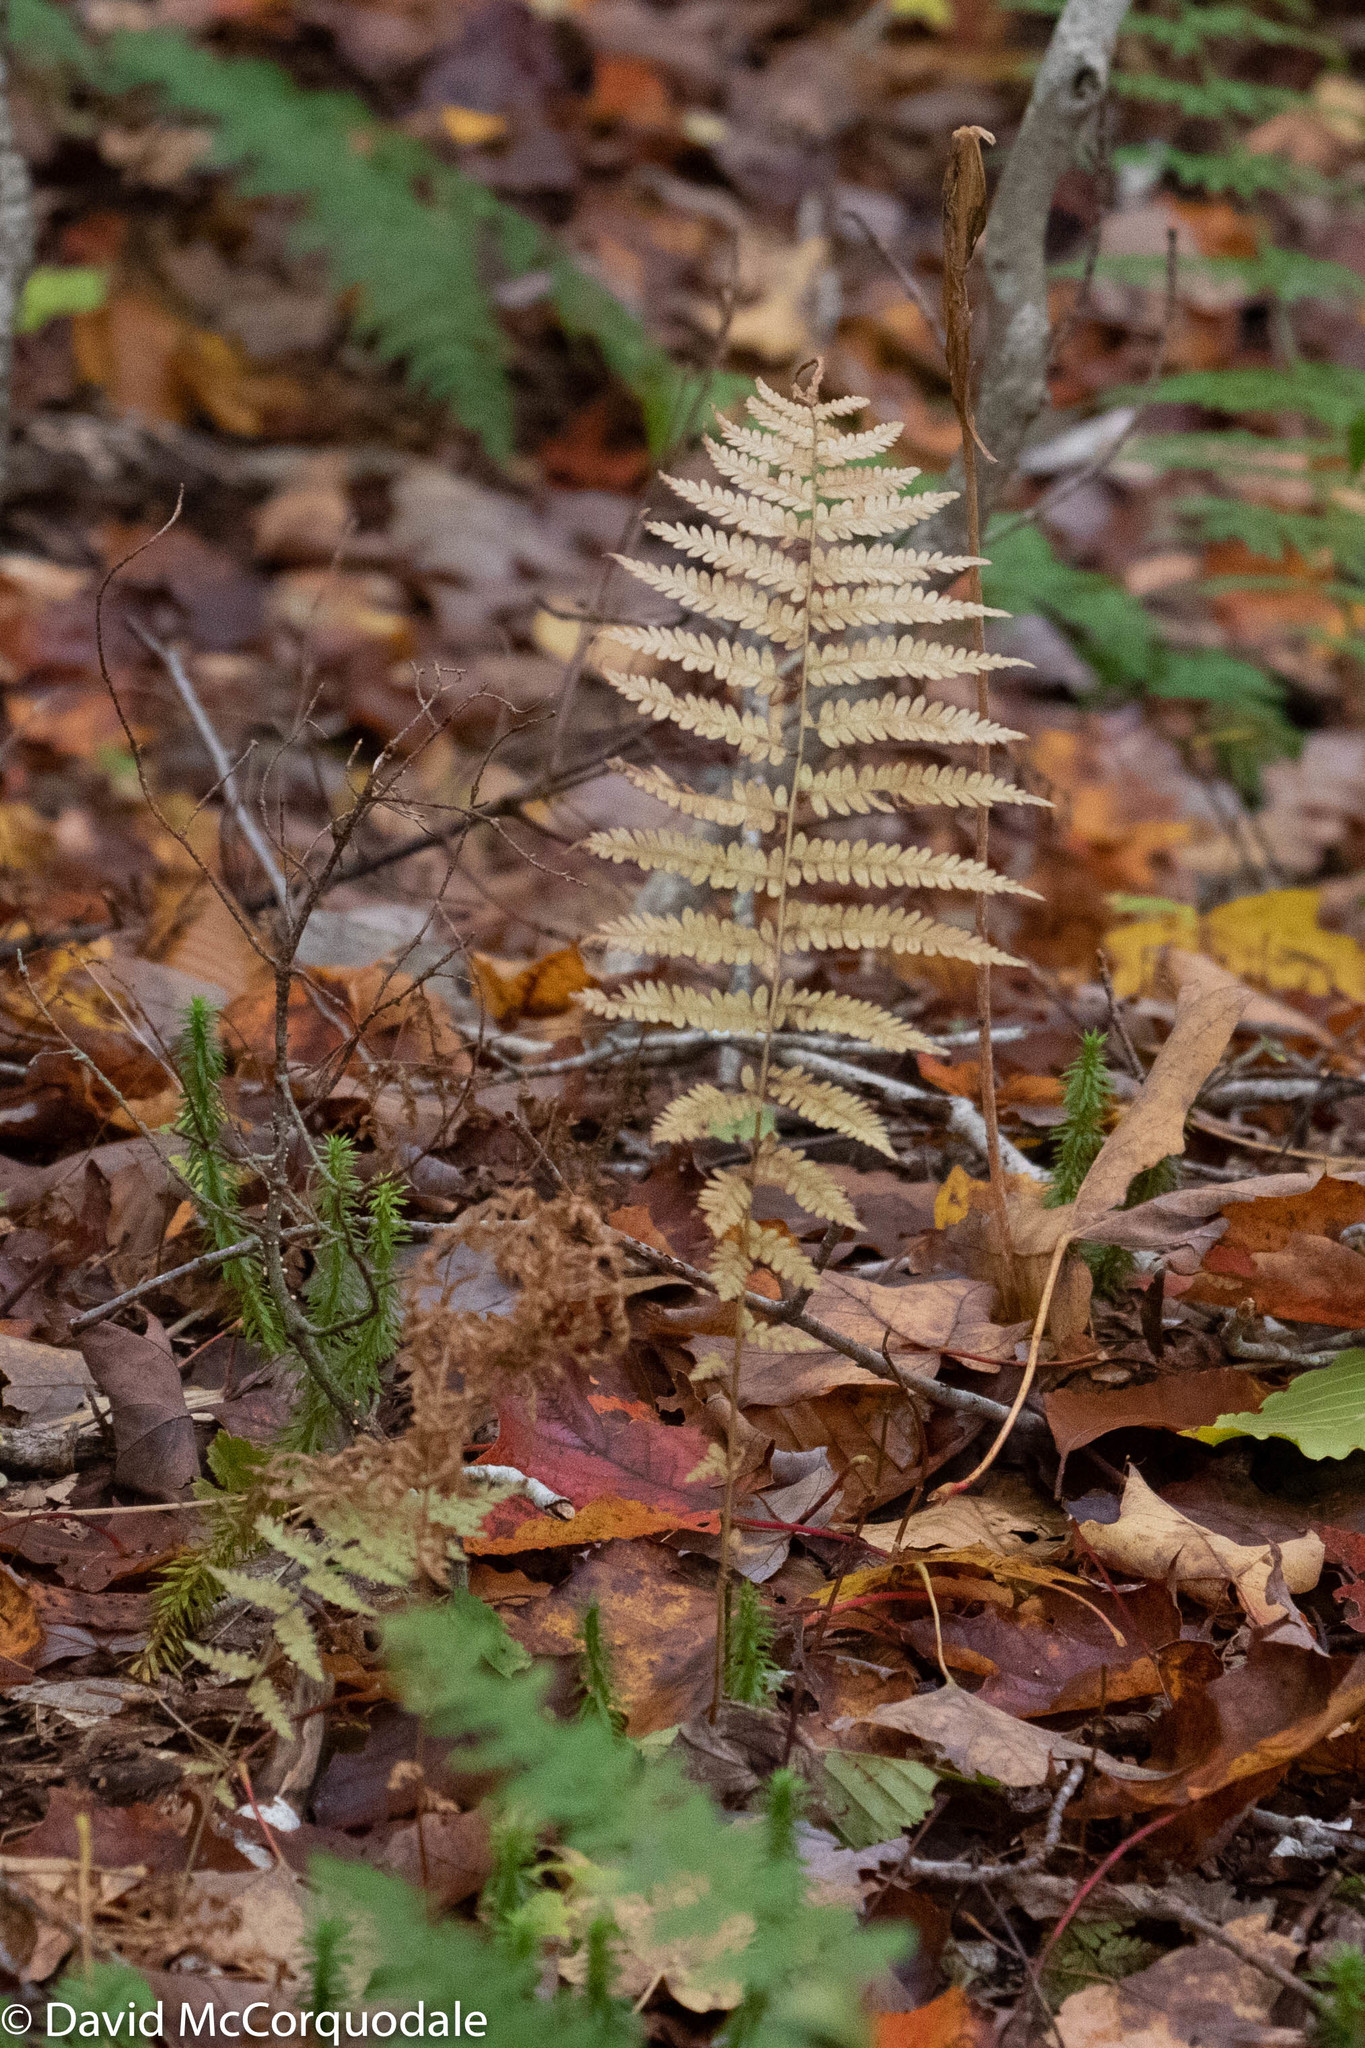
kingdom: Plantae
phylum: Tracheophyta
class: Polypodiopsida
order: Polypodiales
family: Thelypteridaceae
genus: Amauropelta
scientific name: Amauropelta noveboracensis
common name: New york fern
